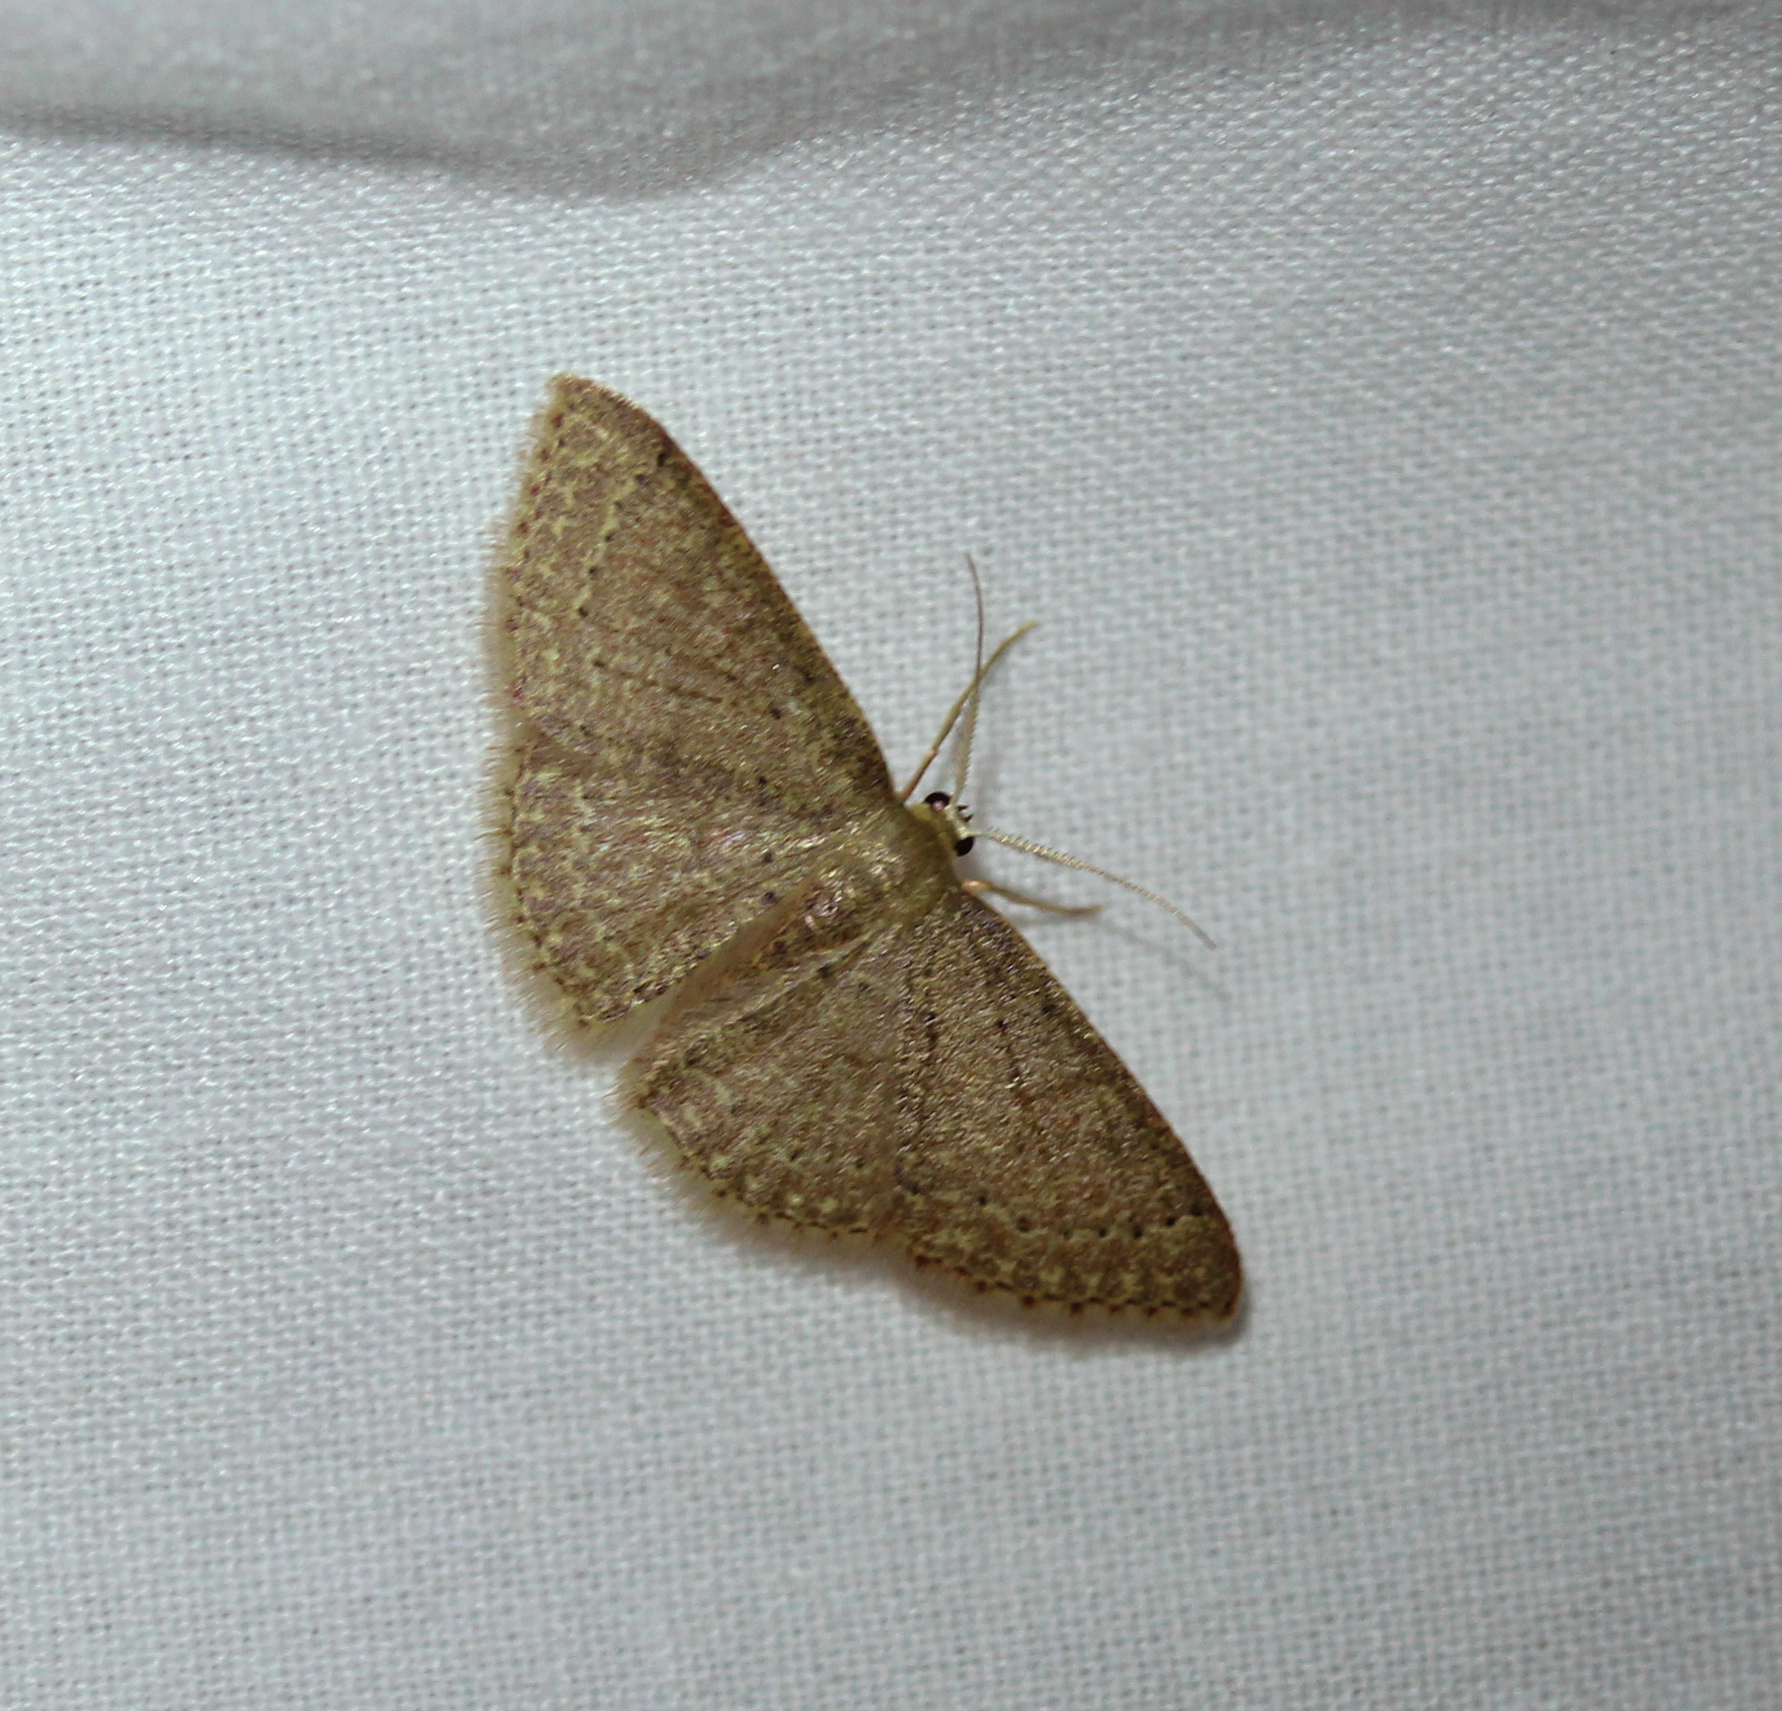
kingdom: Animalia
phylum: Arthropoda
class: Insecta
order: Lepidoptera
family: Geometridae
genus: Pleuroprucha
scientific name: Pleuroprucha insulsaria
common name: Common tan wave
